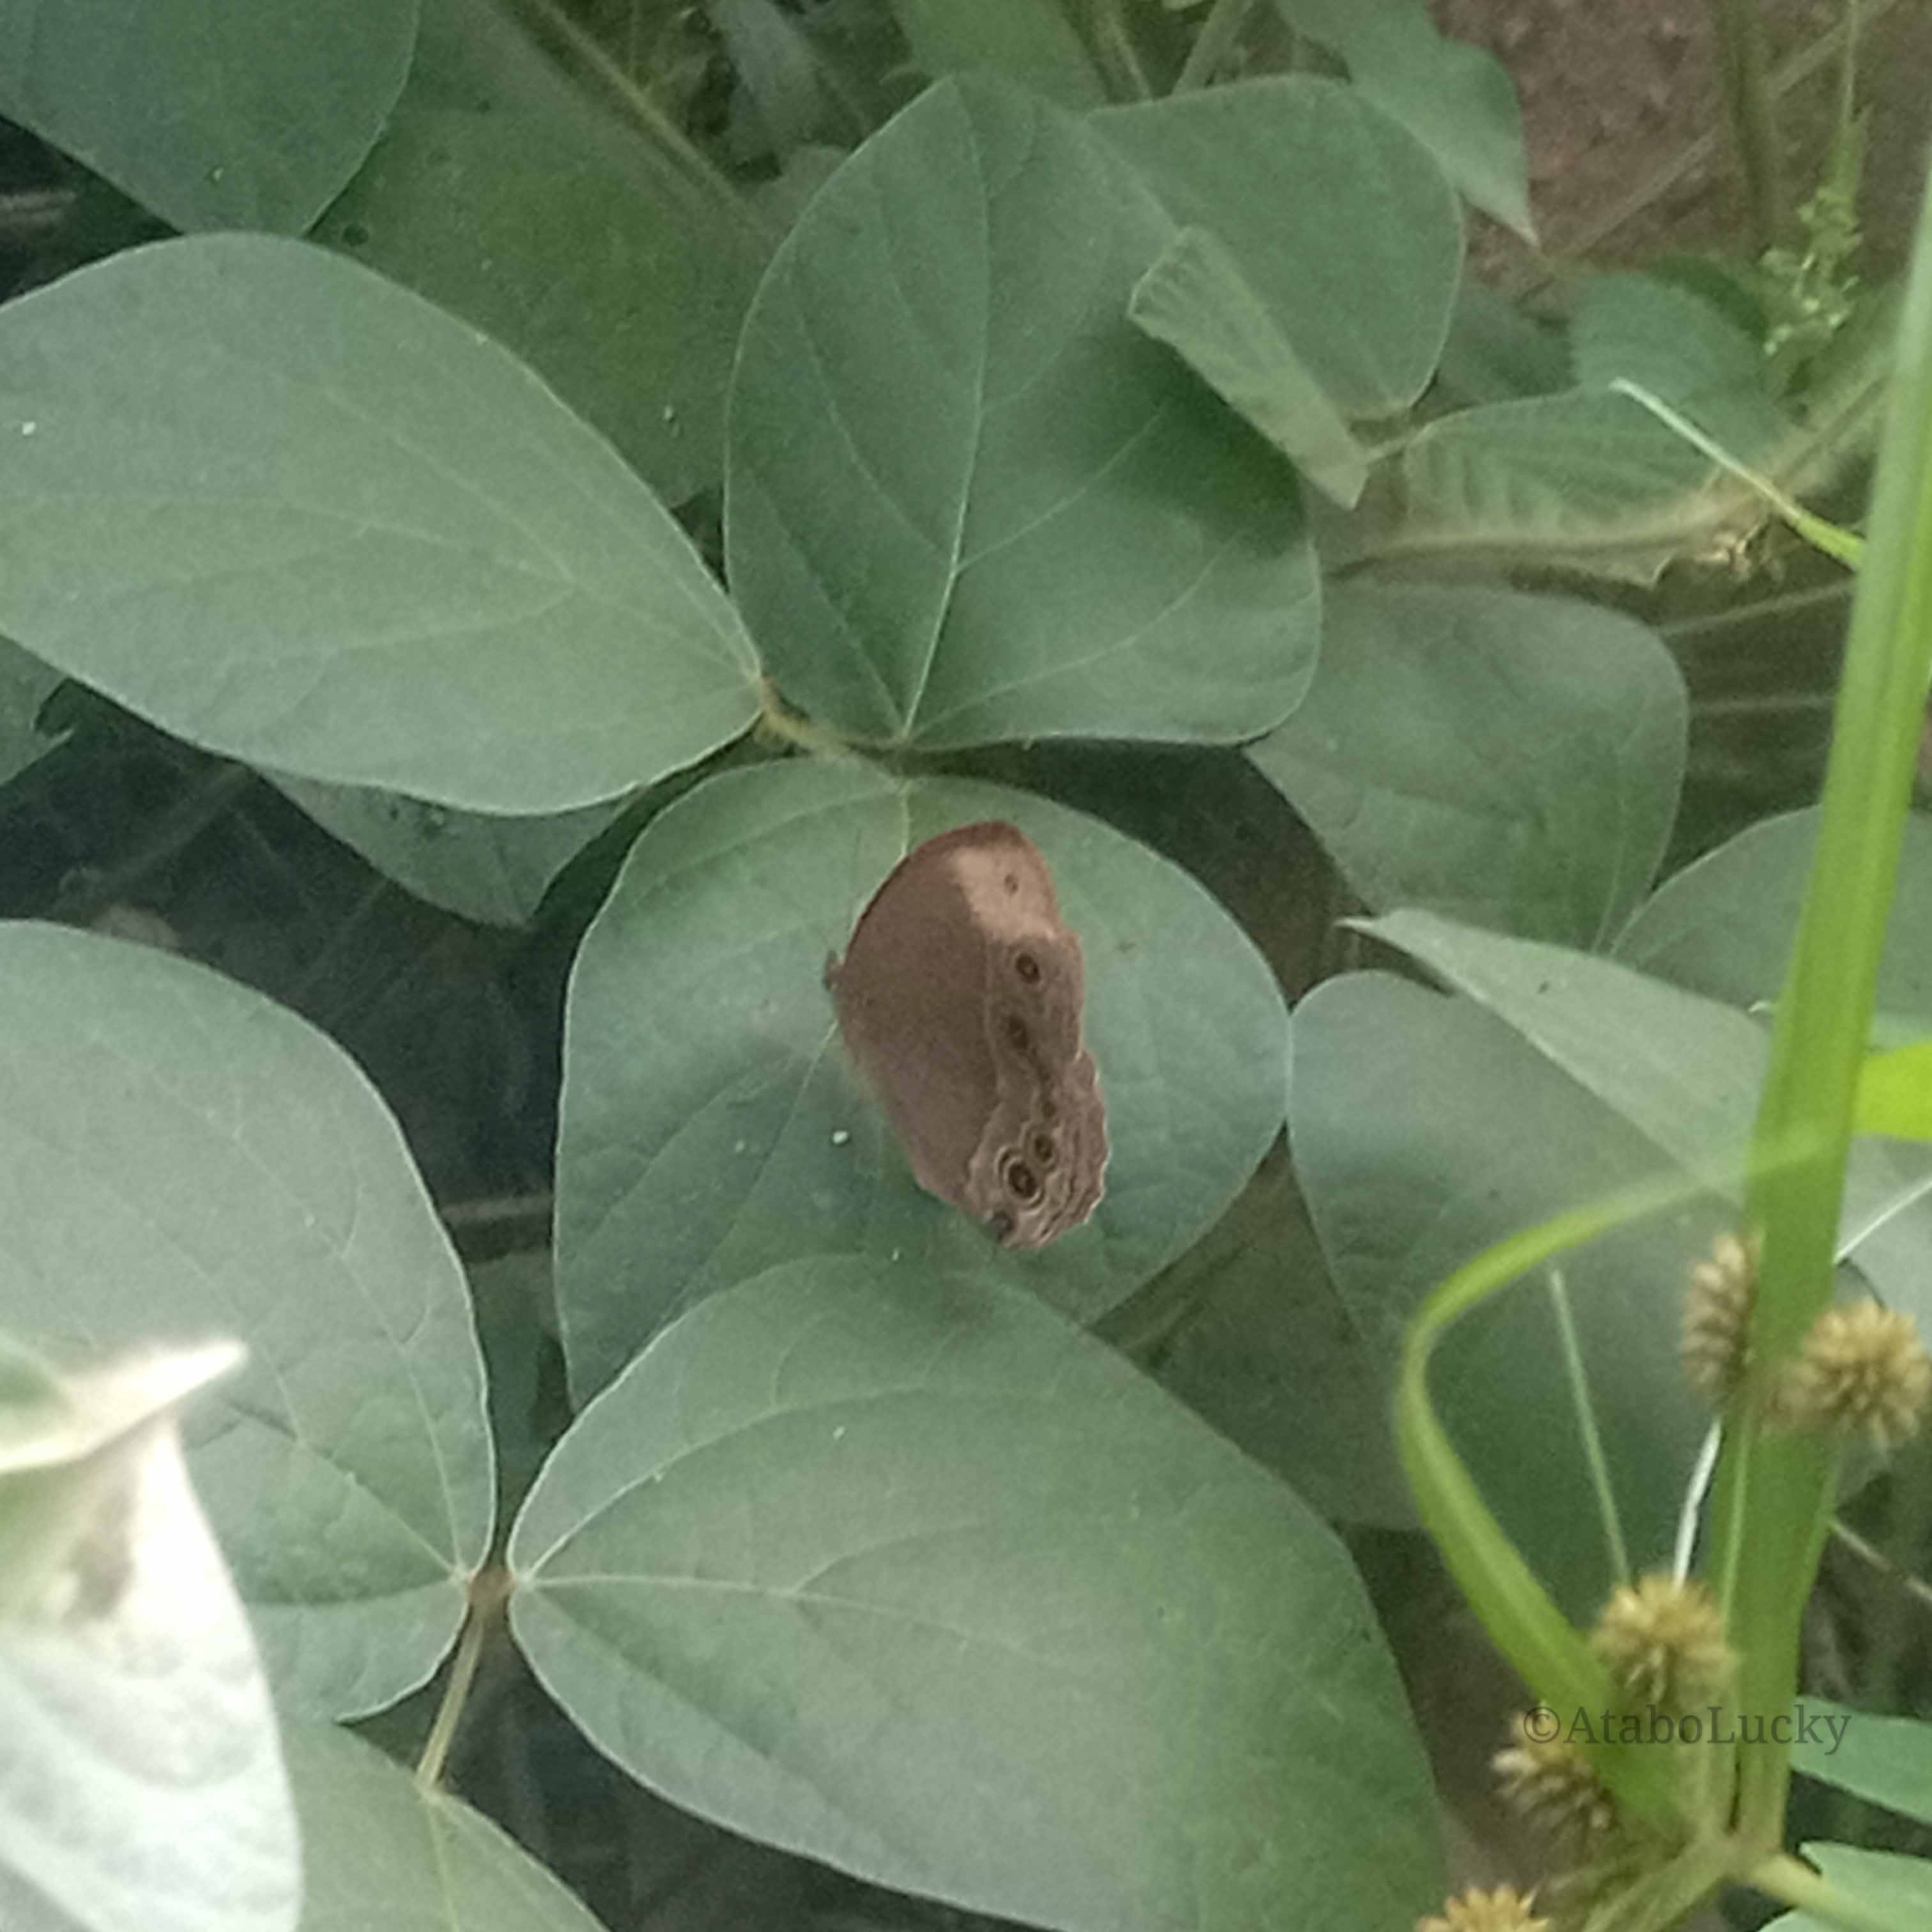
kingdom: Animalia
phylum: Arthropoda
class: Insecta
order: Lepidoptera
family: Nymphalidae
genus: Mycalesis
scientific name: Mycalesis funebris
